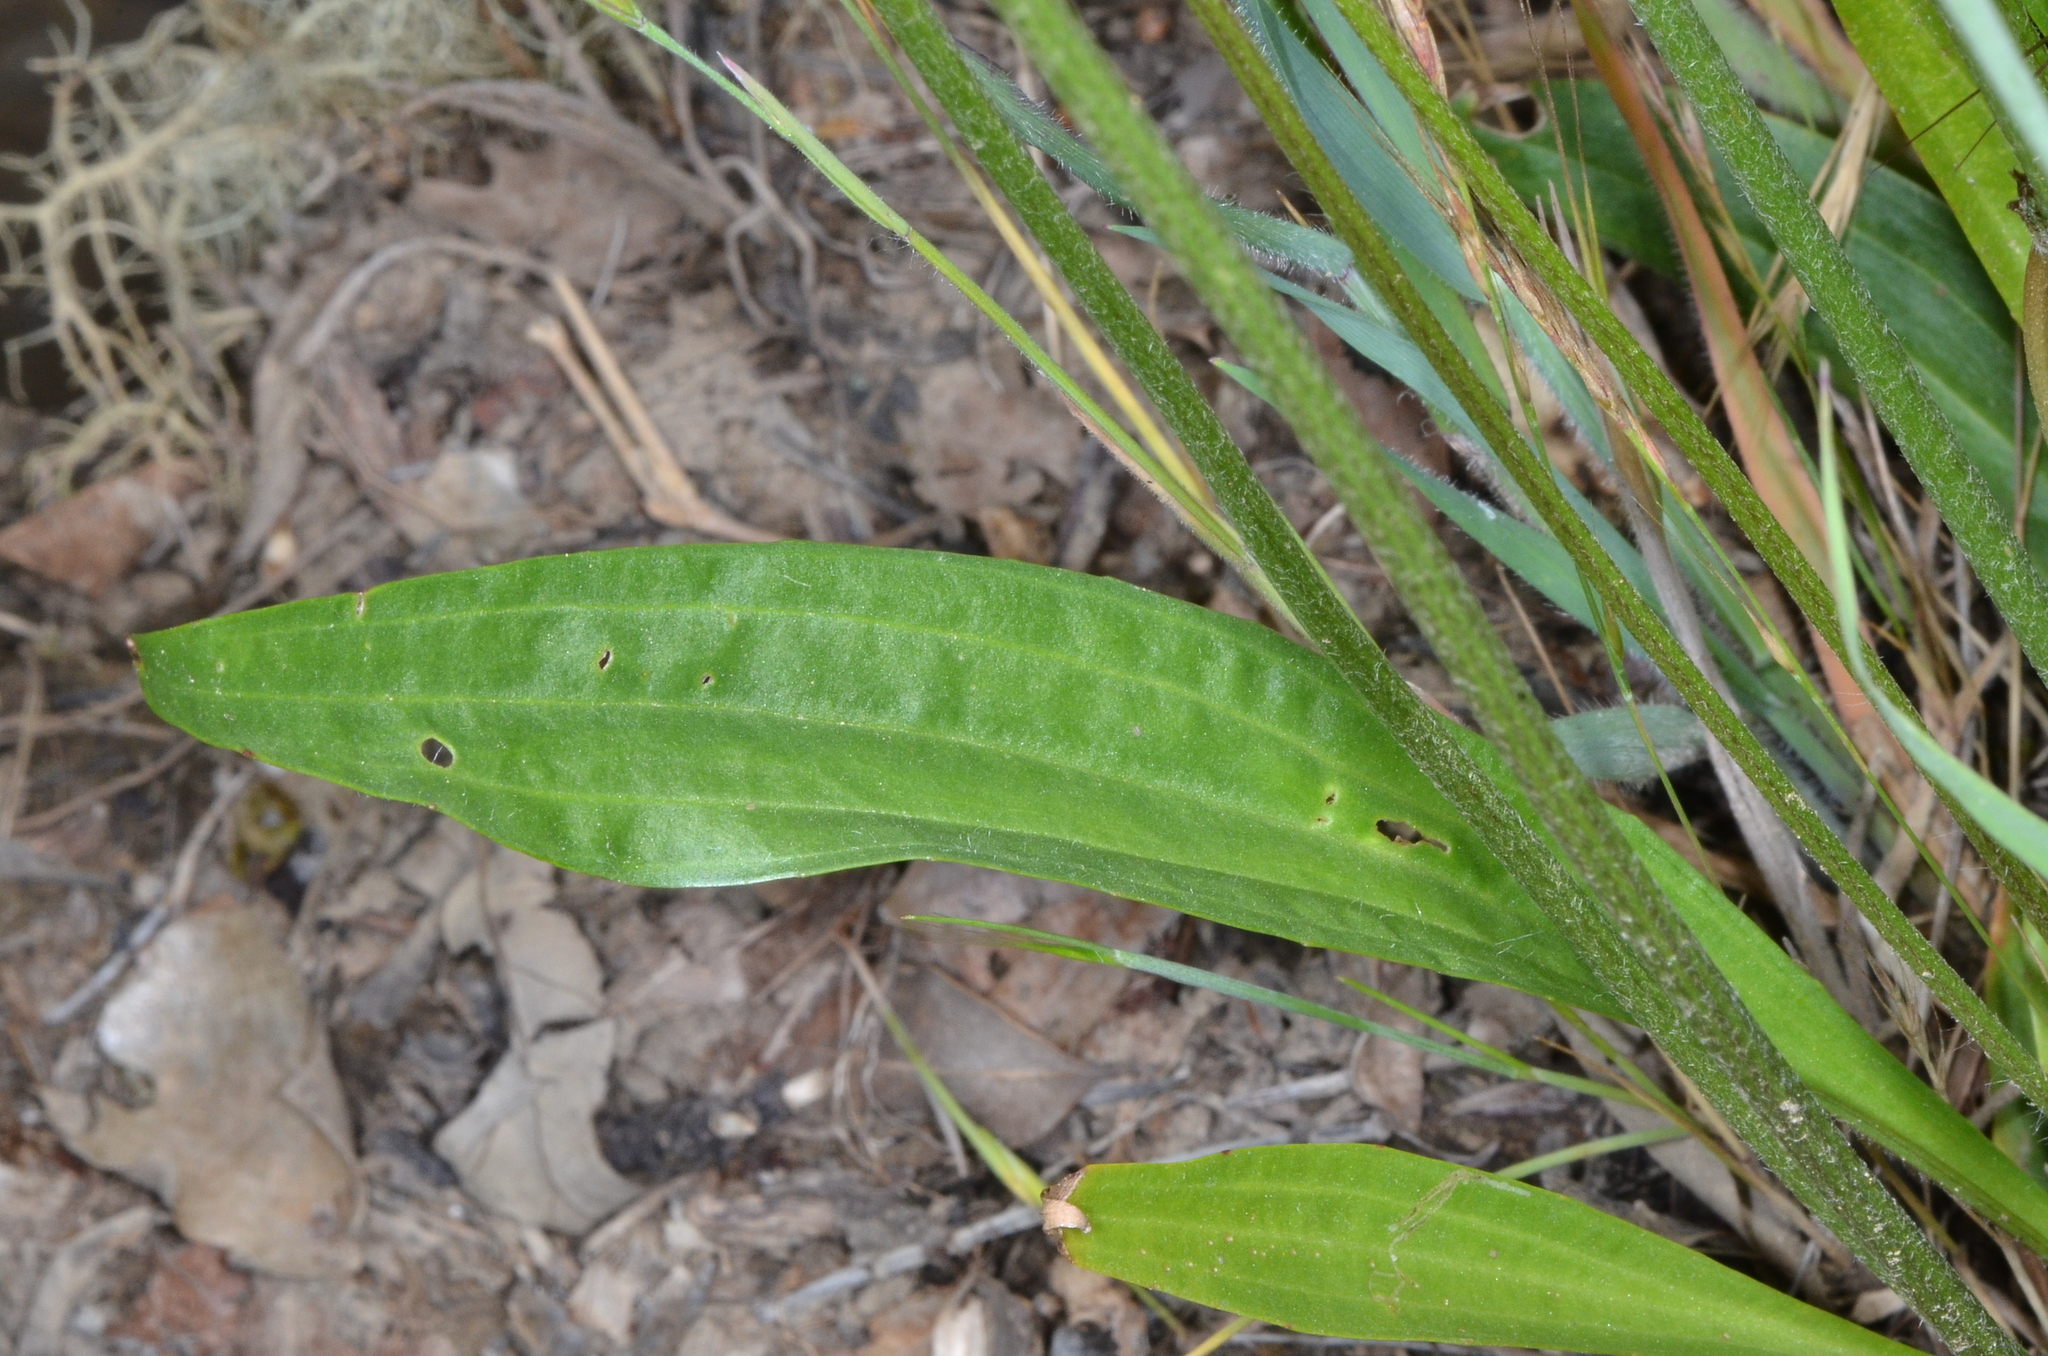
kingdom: Plantae
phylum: Tracheophyta
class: Magnoliopsida
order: Lamiales
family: Plantaginaceae
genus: Plantago
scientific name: Plantago lanceolata
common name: Ribwort plantain
